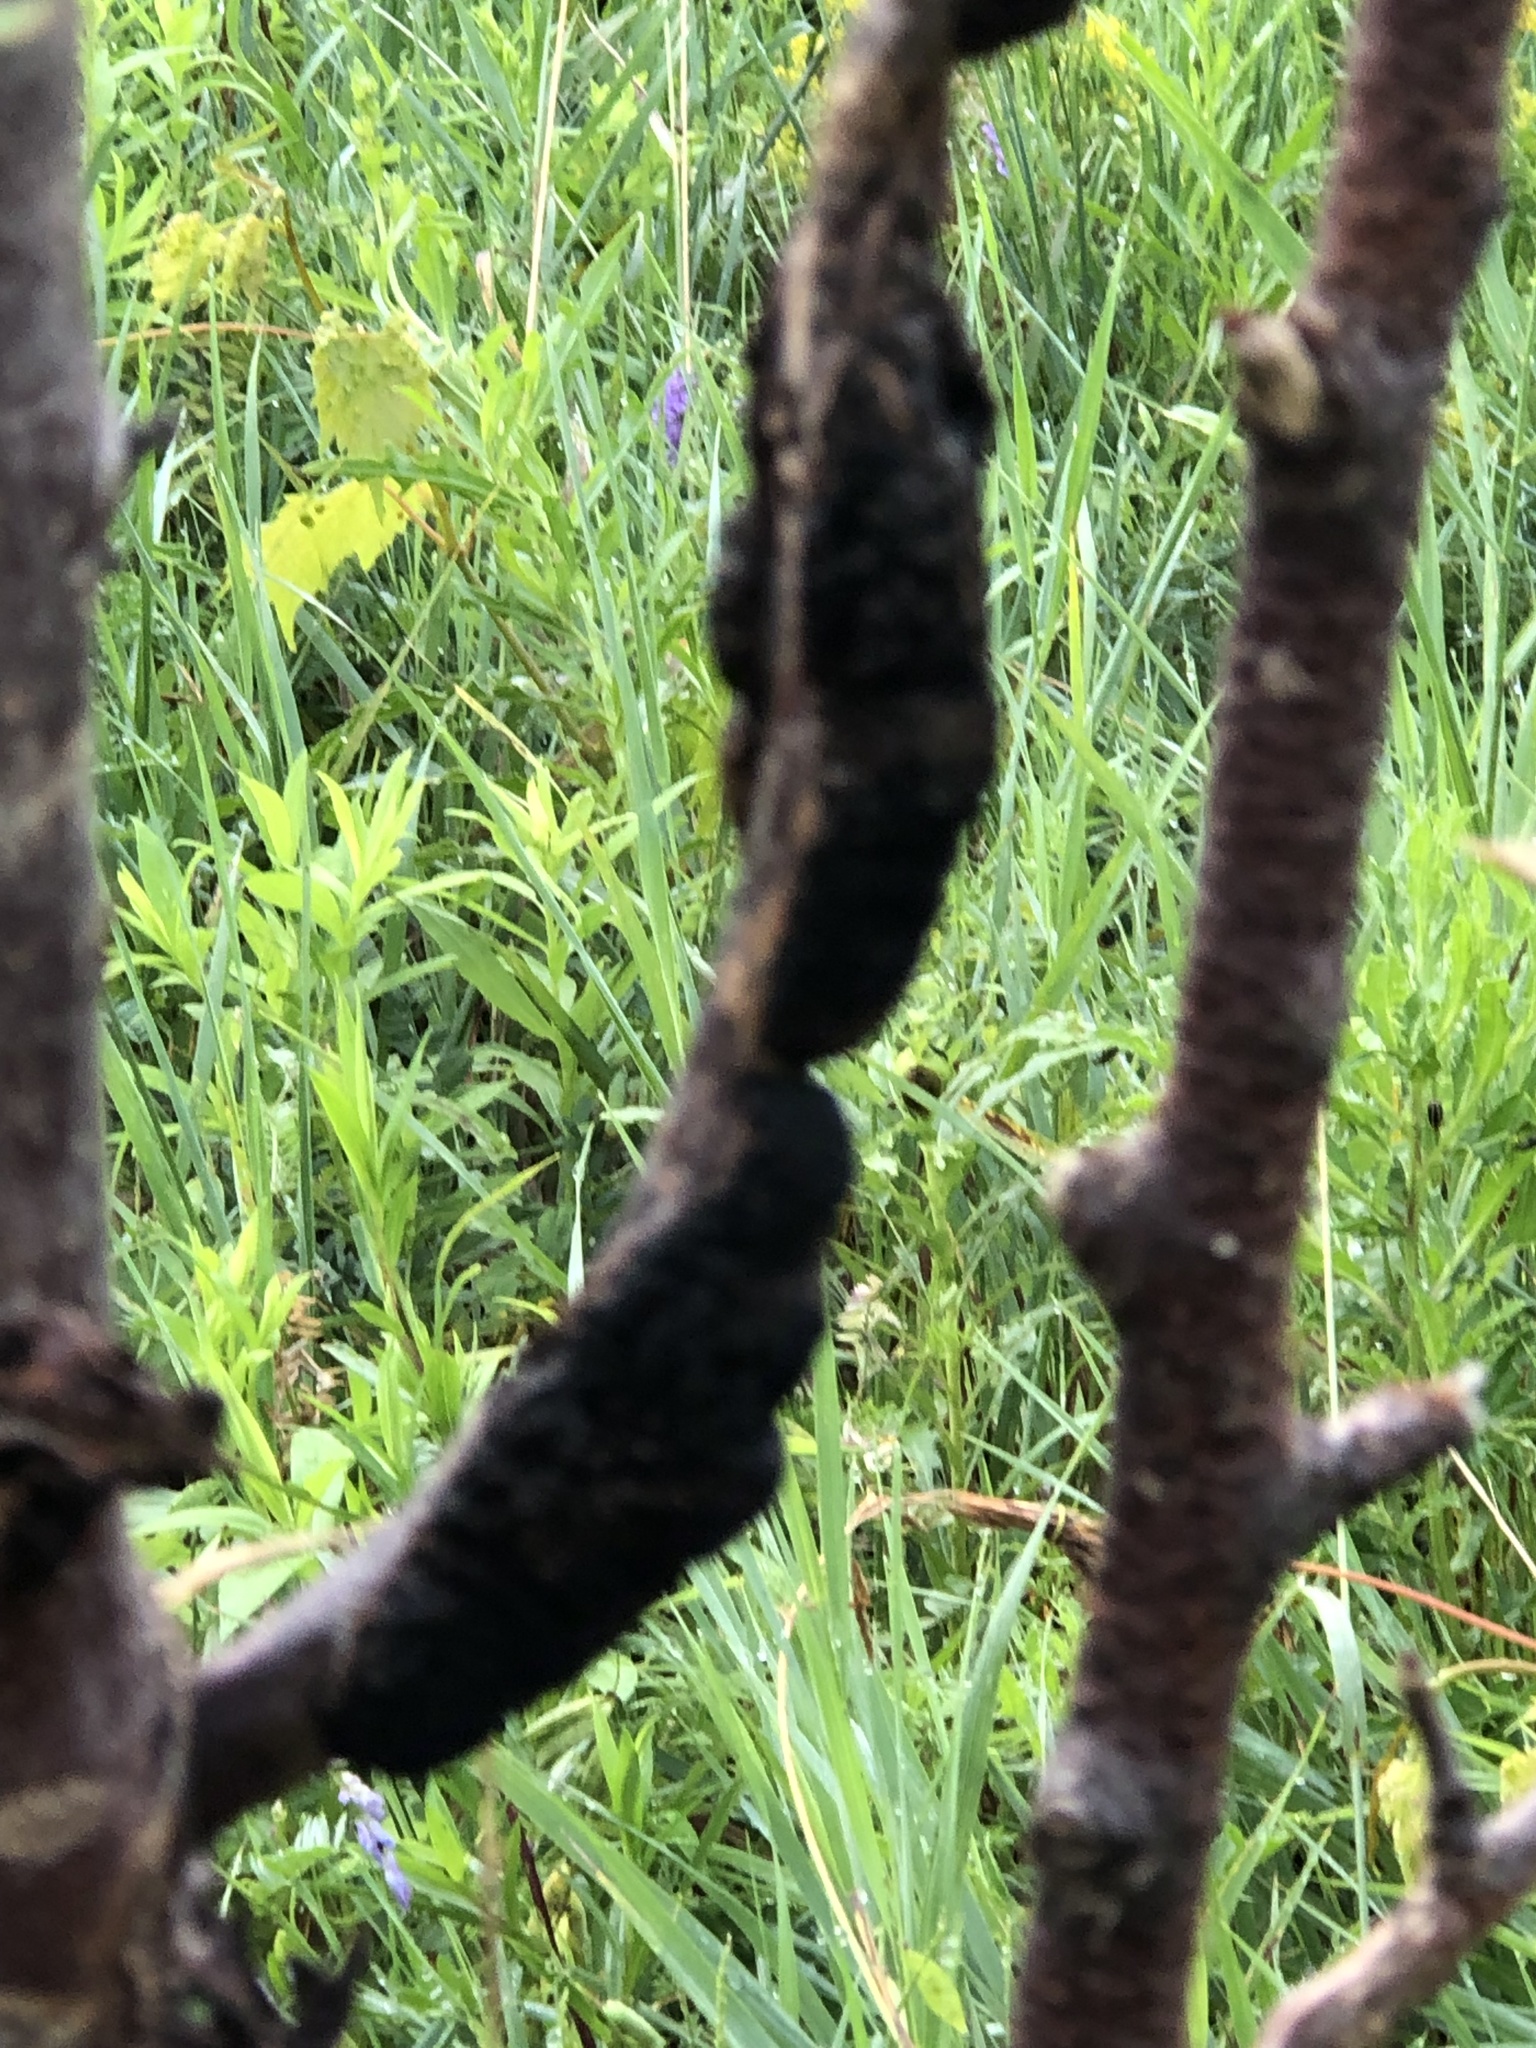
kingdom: Fungi
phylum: Ascomycota
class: Dothideomycetes
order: Venturiales
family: Venturiaceae
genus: Apiosporina
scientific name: Apiosporina morbosa
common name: Black knot
